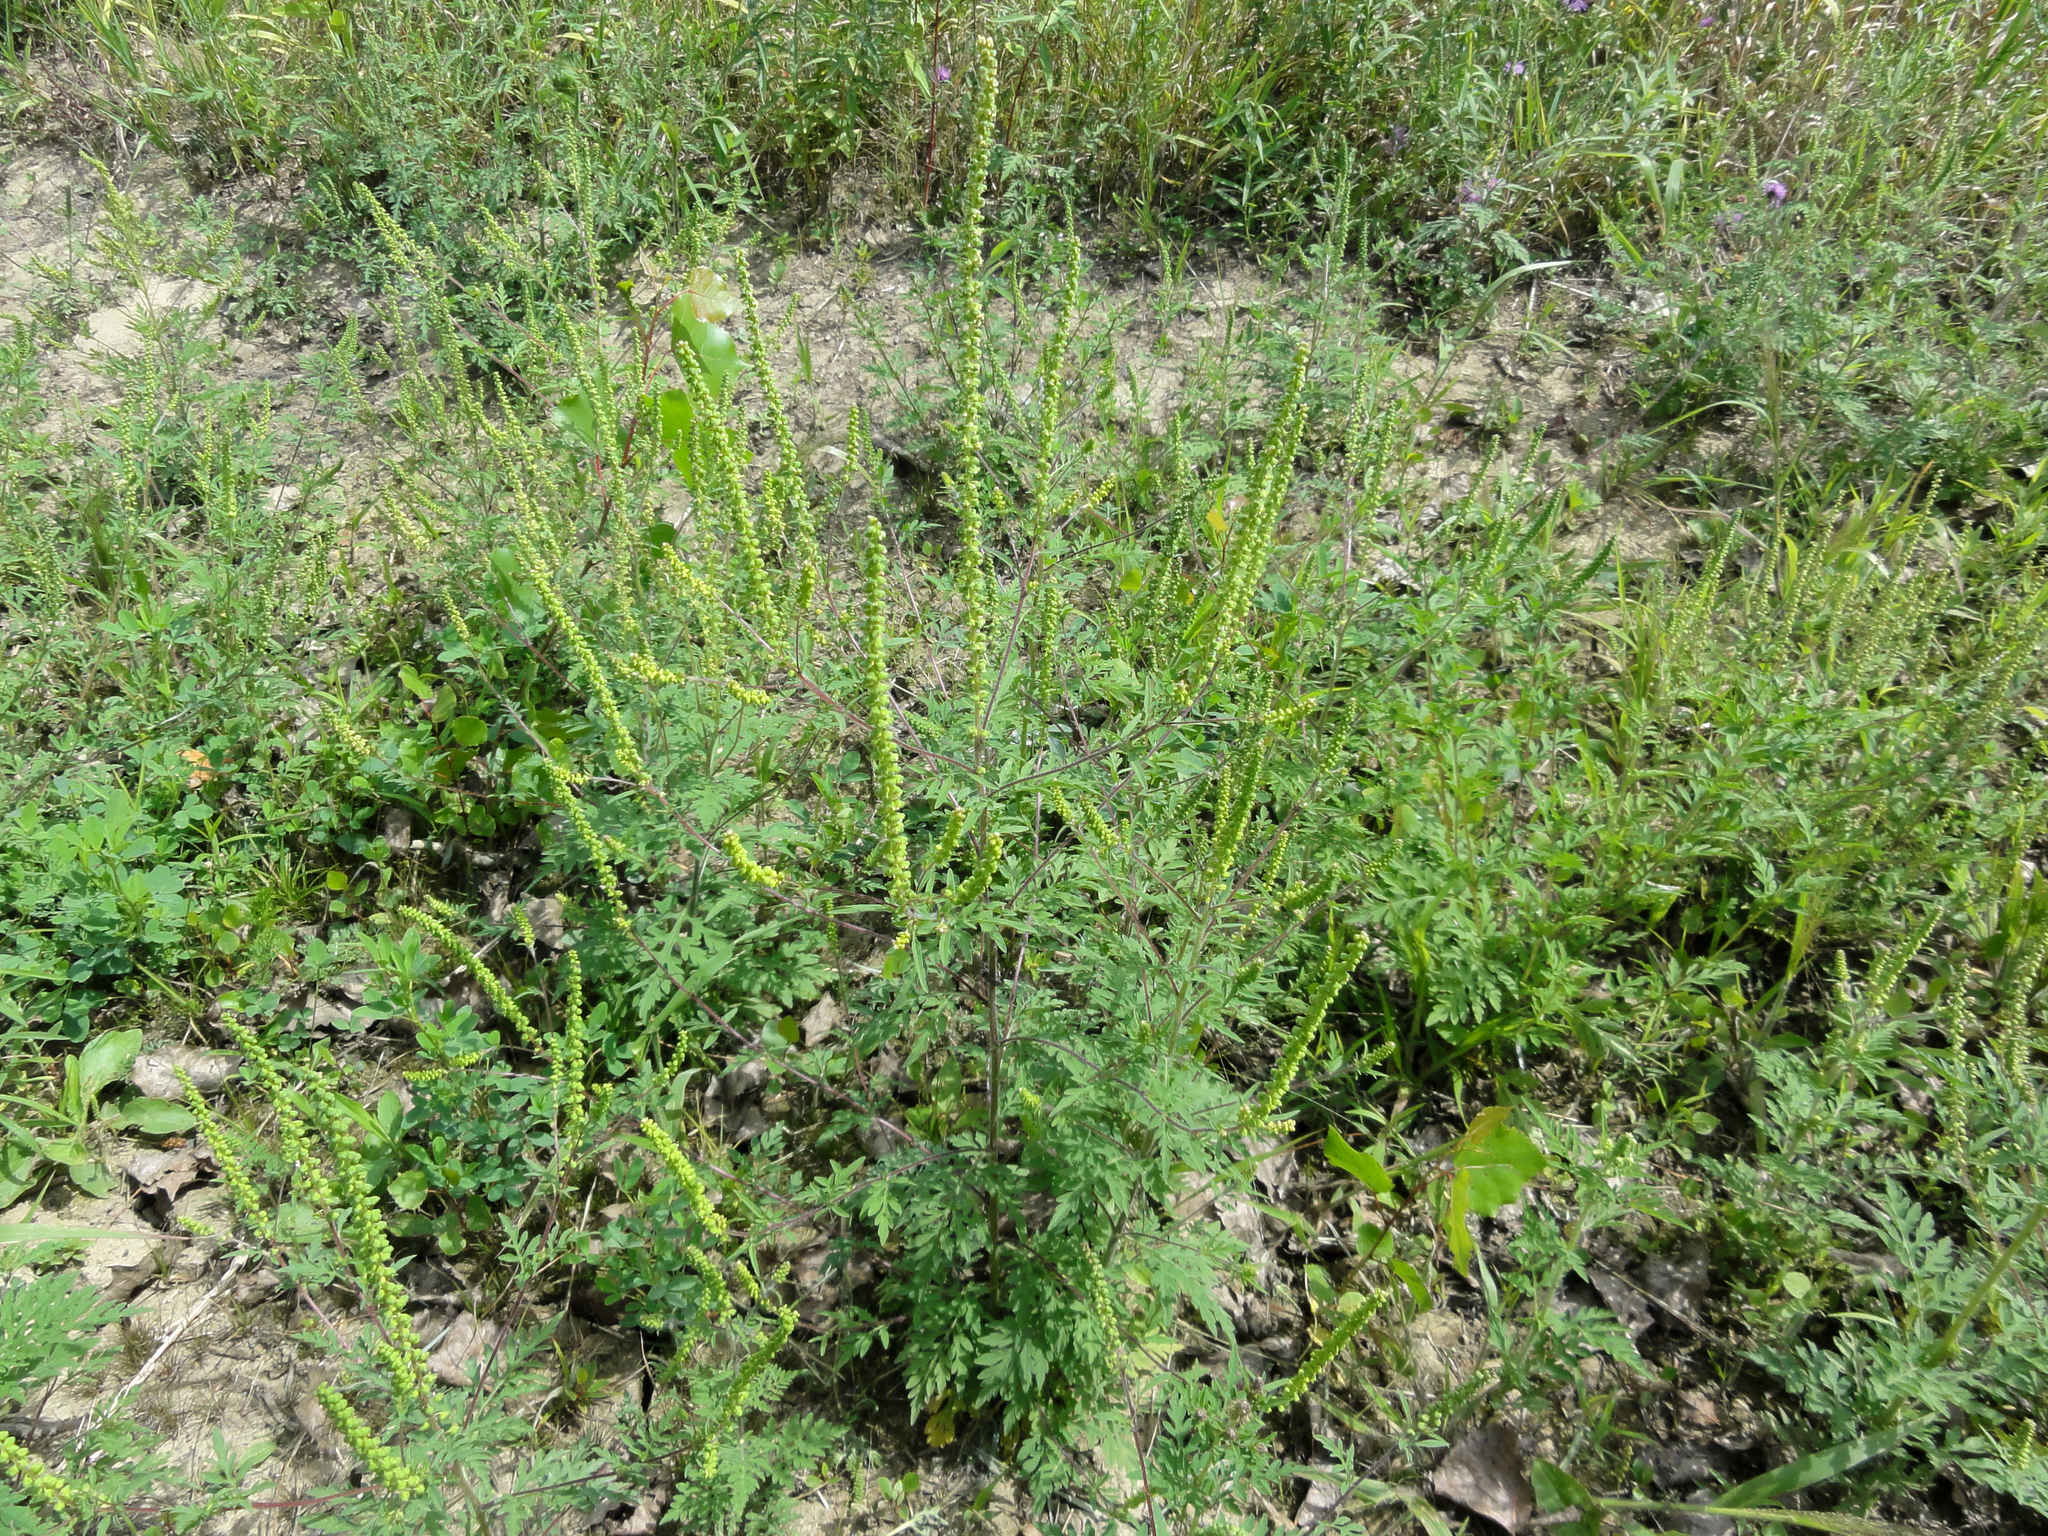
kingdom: Plantae
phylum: Tracheophyta
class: Magnoliopsida
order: Asterales
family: Asteraceae
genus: Ambrosia
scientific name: Ambrosia artemisiifolia
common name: Annual ragweed
